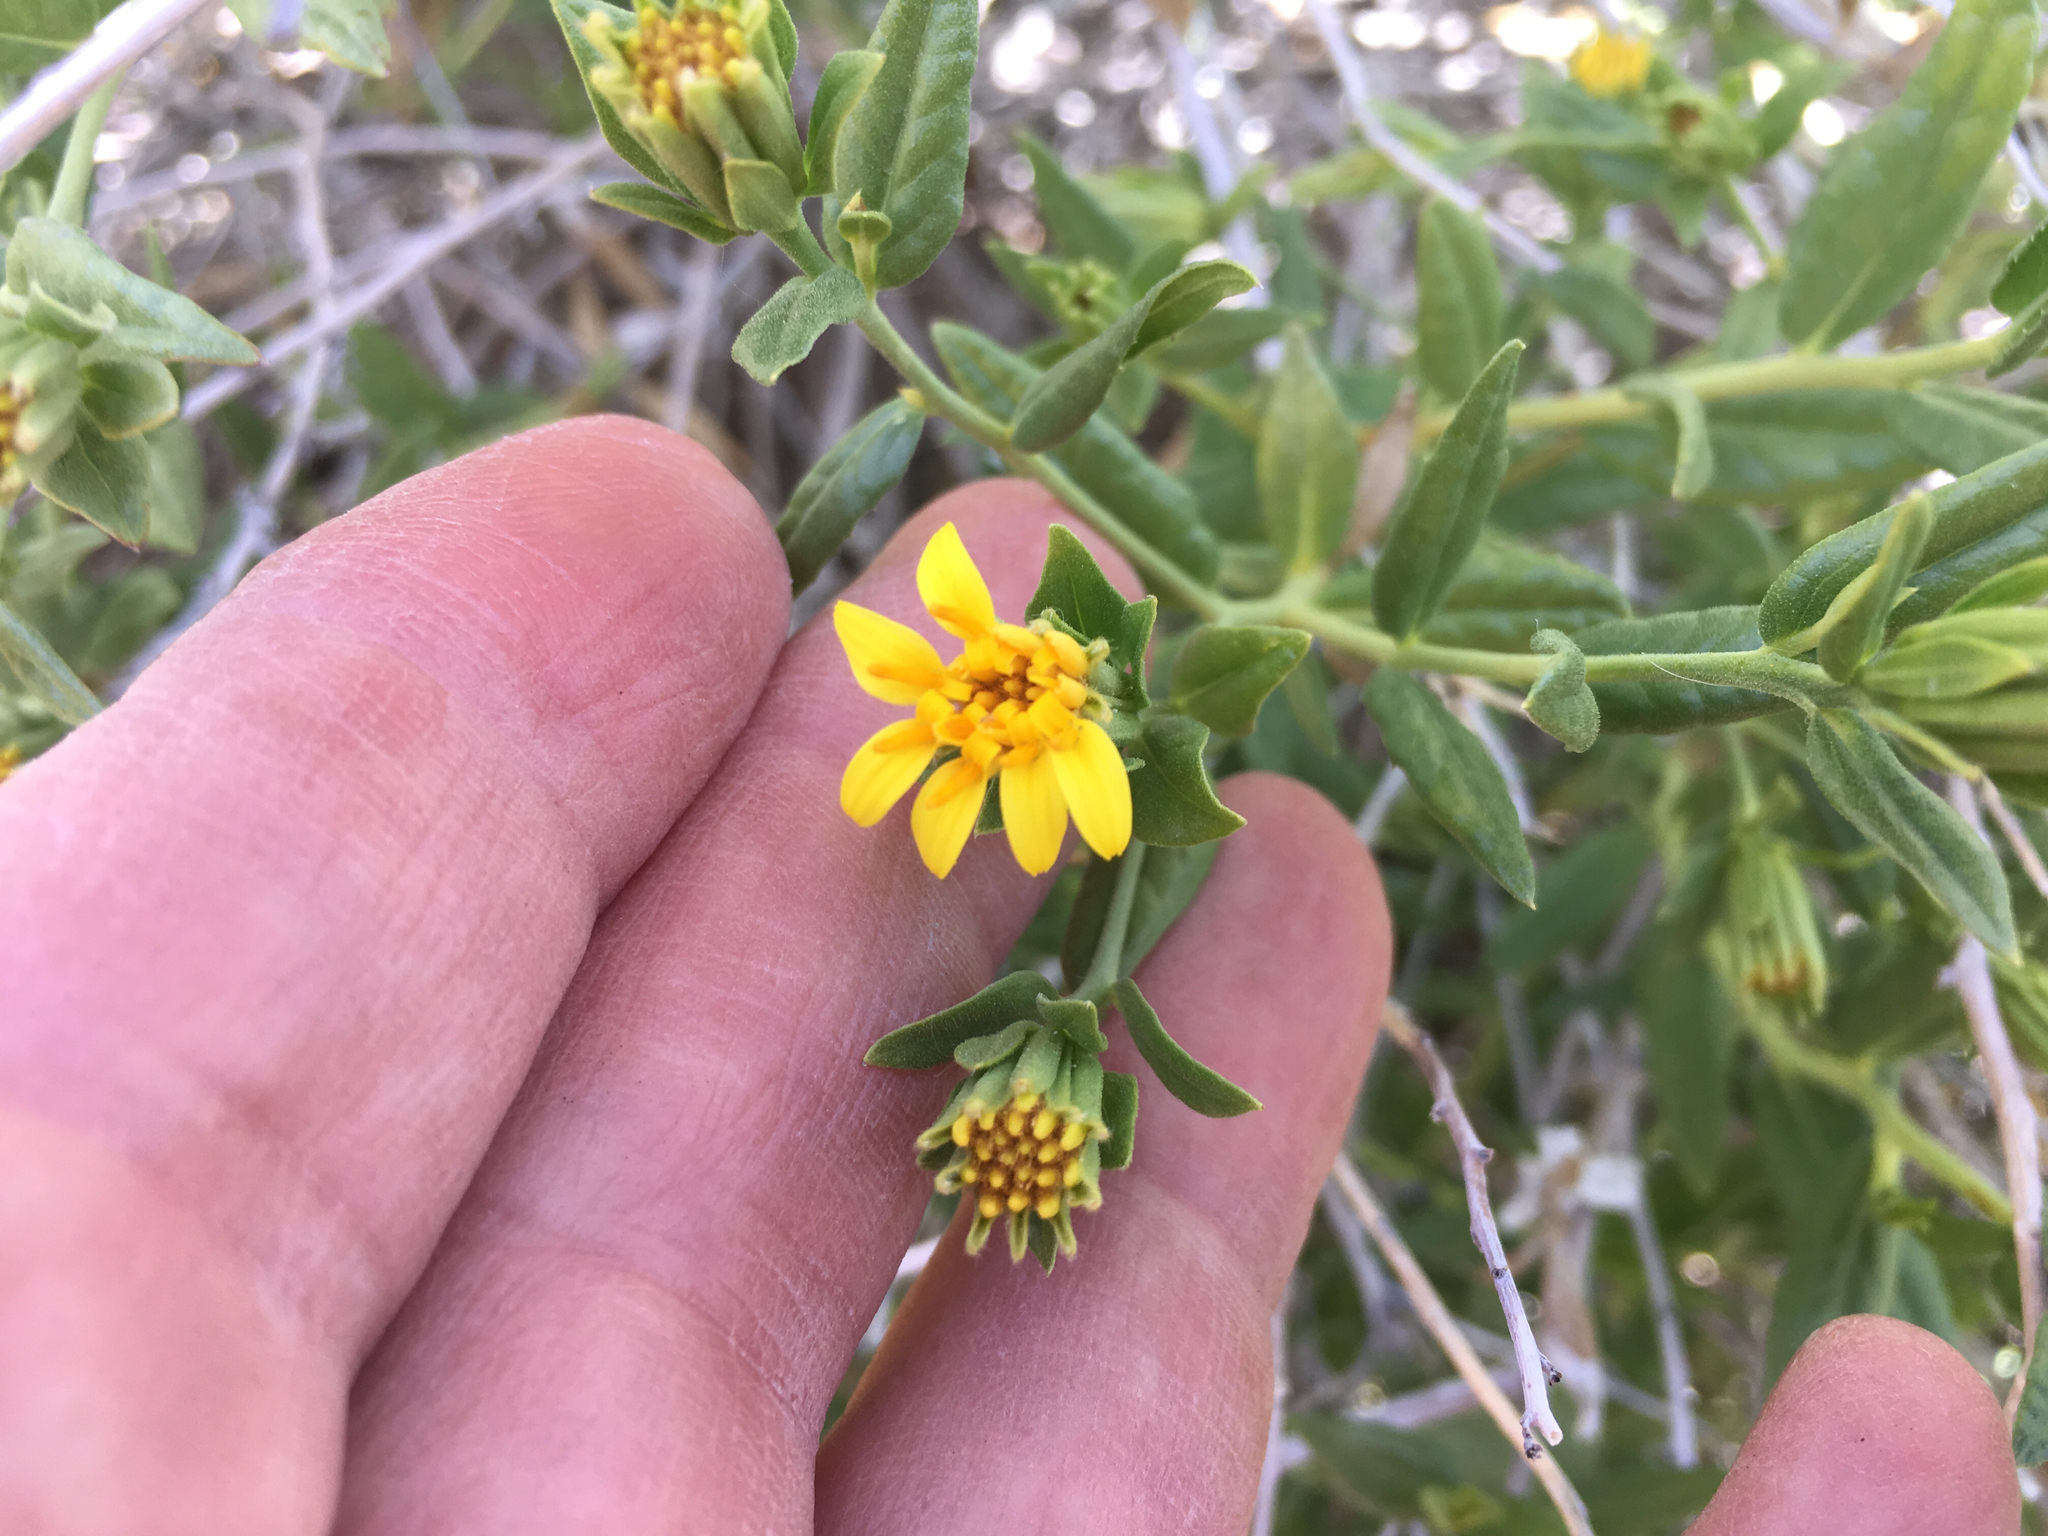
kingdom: Plantae
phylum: Tracheophyta
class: Magnoliopsida
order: Asterales
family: Asteraceae
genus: Trixis
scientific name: Trixis californica
